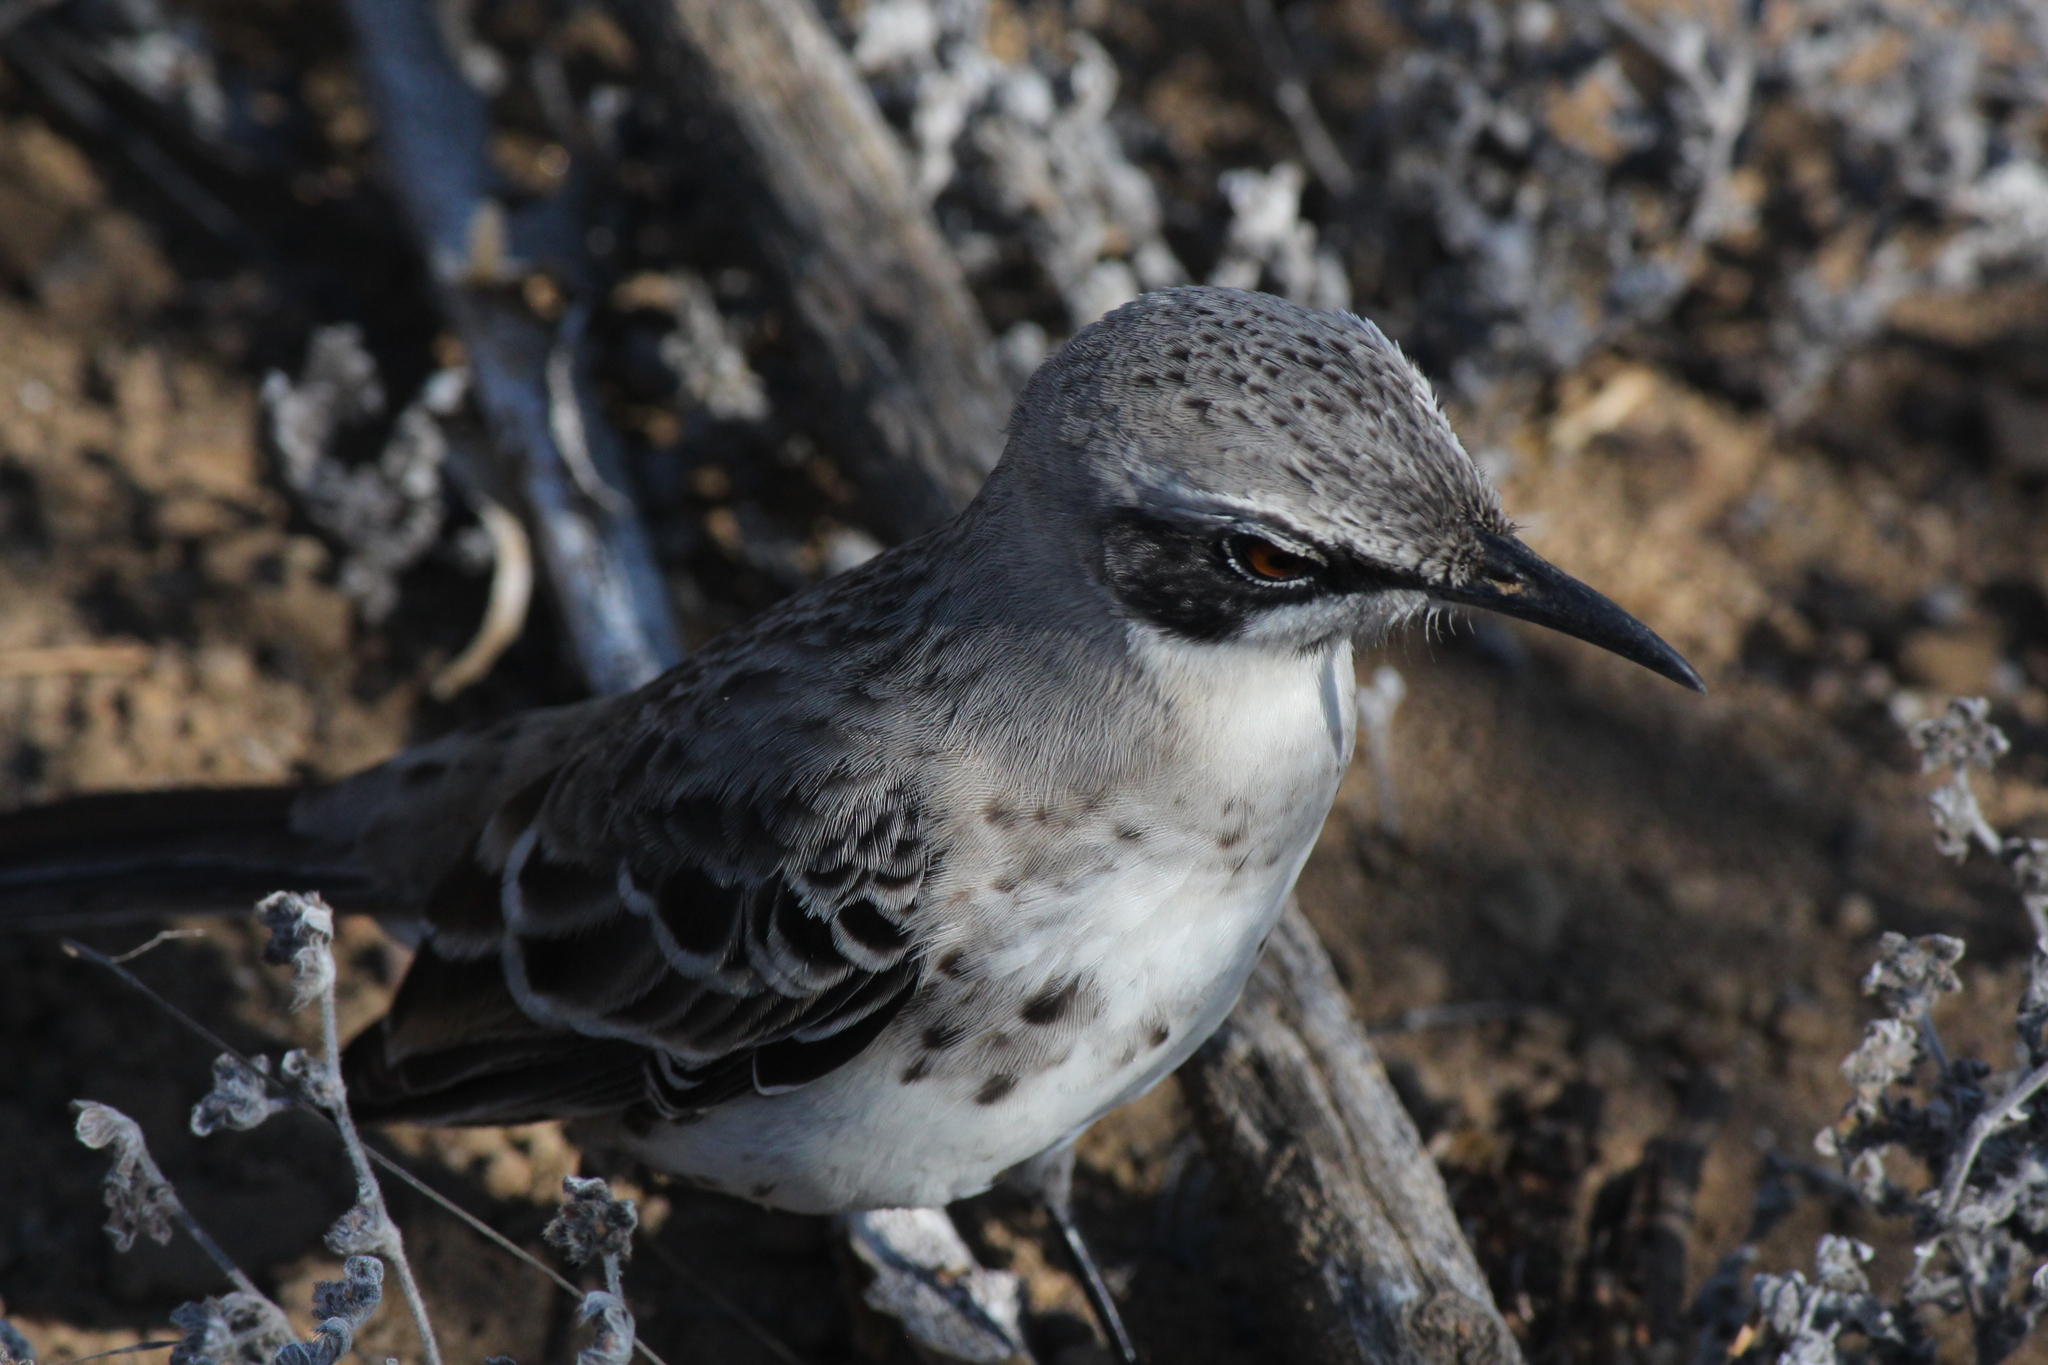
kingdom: Animalia
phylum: Chordata
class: Aves
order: Passeriformes
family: Mimidae
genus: Mimus
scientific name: Mimus melanotis
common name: San cristobal mockingbird
